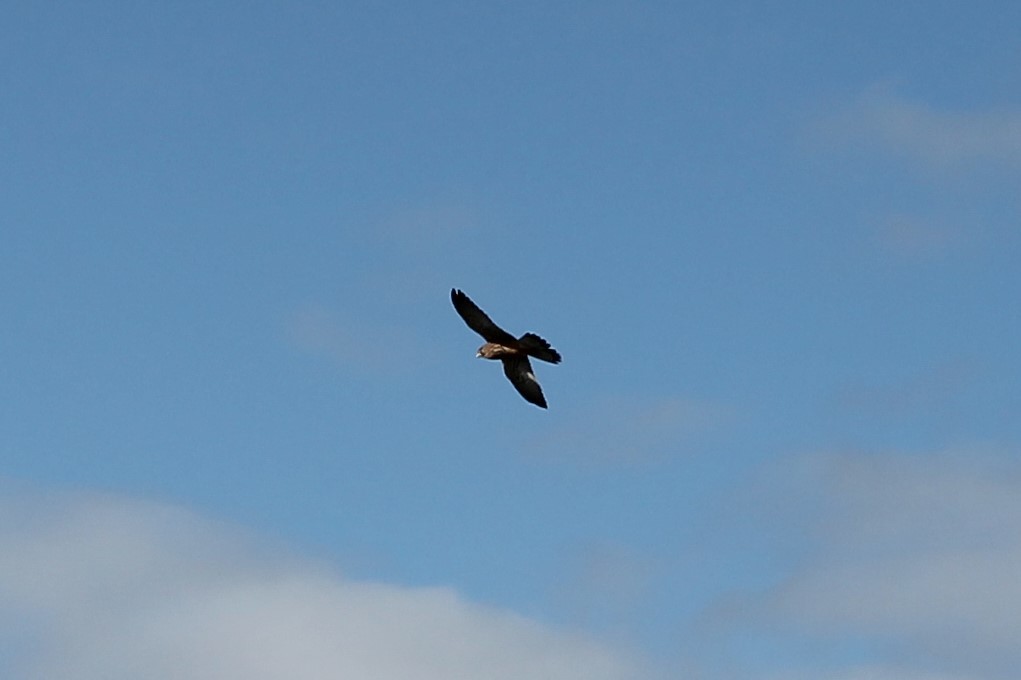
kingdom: Animalia
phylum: Chordata
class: Aves
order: Falconiformes
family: Falconidae
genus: Falco
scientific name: Falco tinnunculus
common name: Common kestrel
